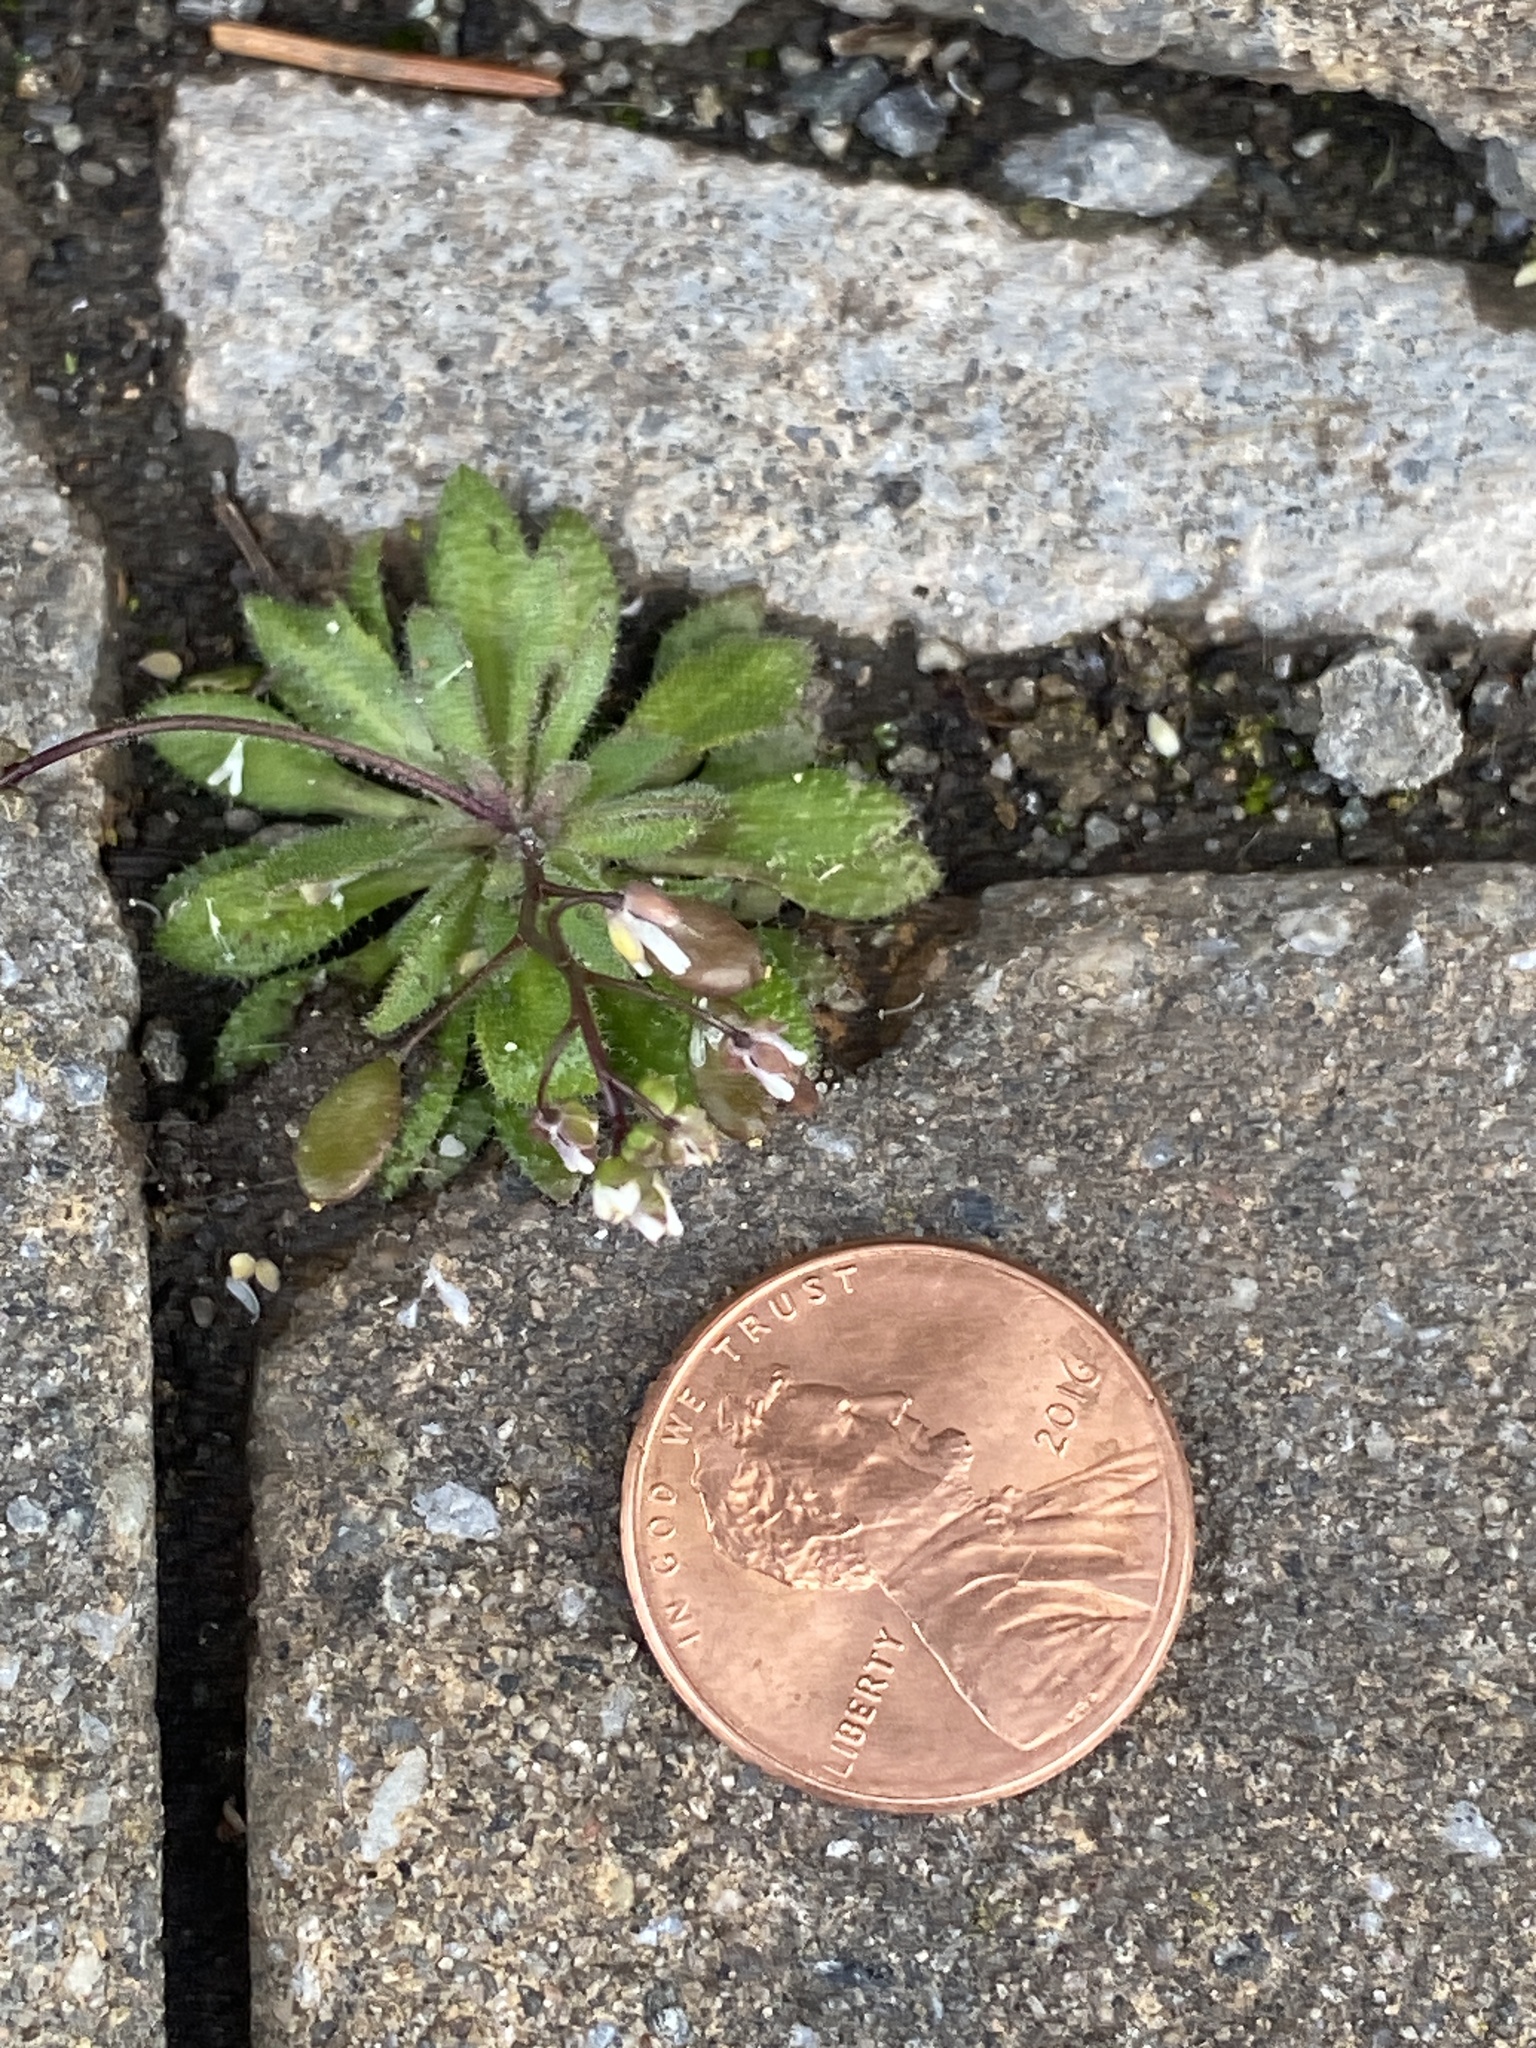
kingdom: Plantae
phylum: Tracheophyta
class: Magnoliopsida
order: Brassicales
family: Brassicaceae
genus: Draba
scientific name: Draba verna
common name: Spring draba
